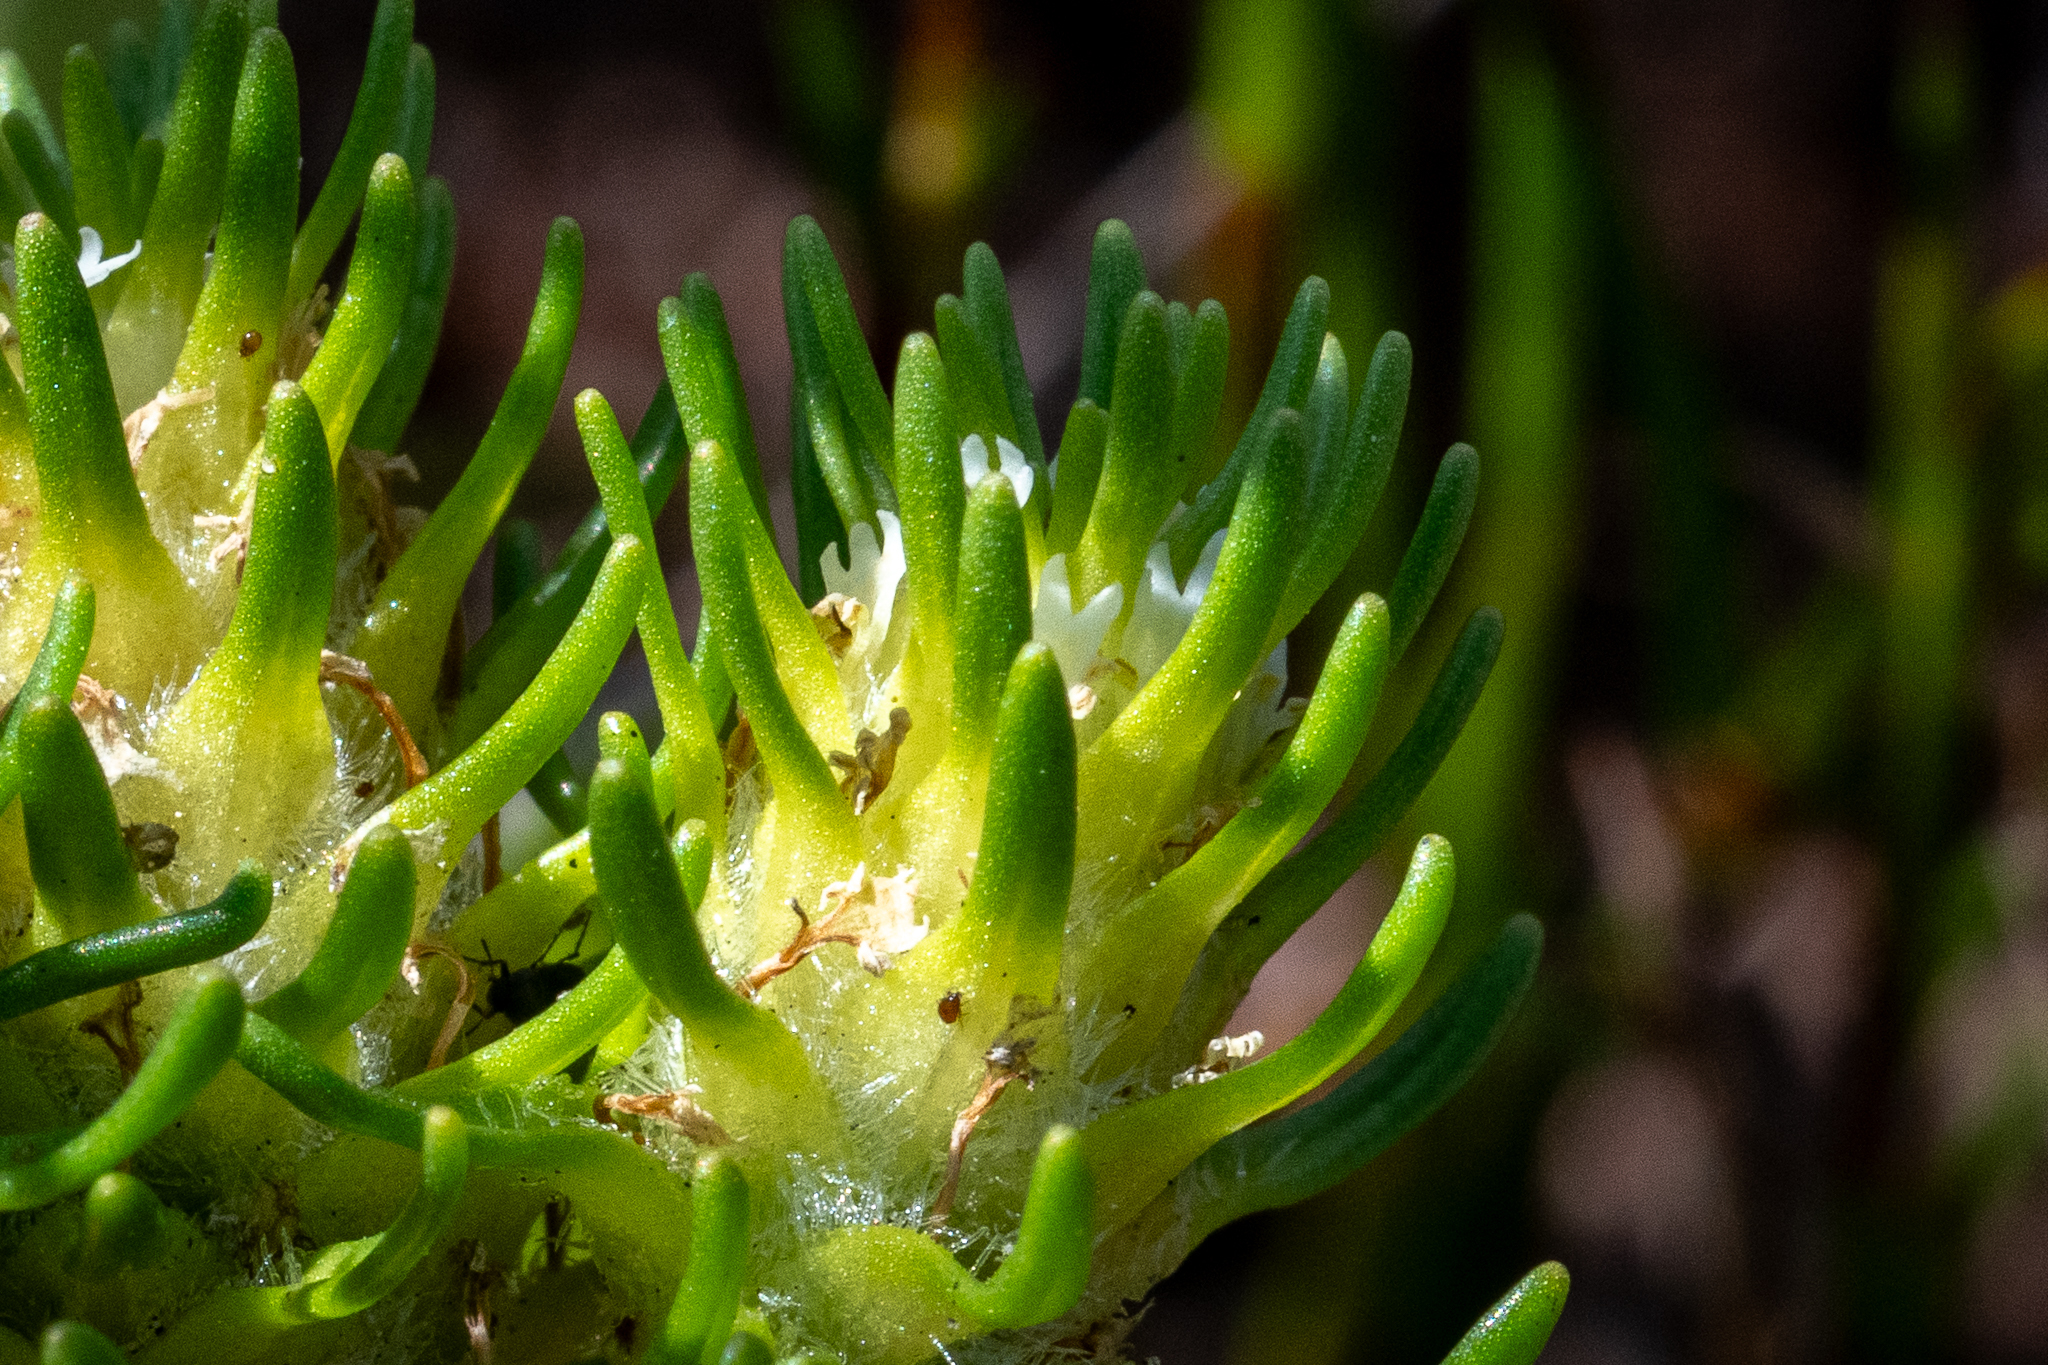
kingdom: Plantae
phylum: Tracheophyta
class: Magnoliopsida
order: Lamiales
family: Scrophulariaceae
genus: Dischisma
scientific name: Dischisma capitatum
